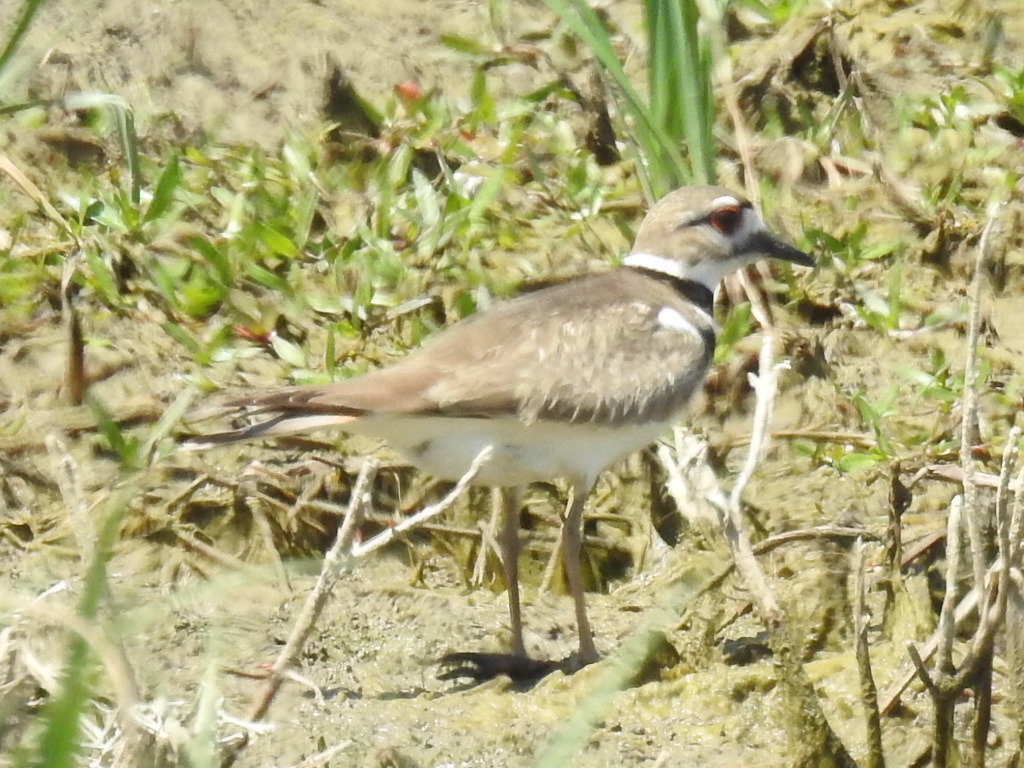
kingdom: Animalia
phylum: Chordata
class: Aves
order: Charadriiformes
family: Charadriidae
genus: Charadrius
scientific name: Charadrius vociferus
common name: Killdeer
